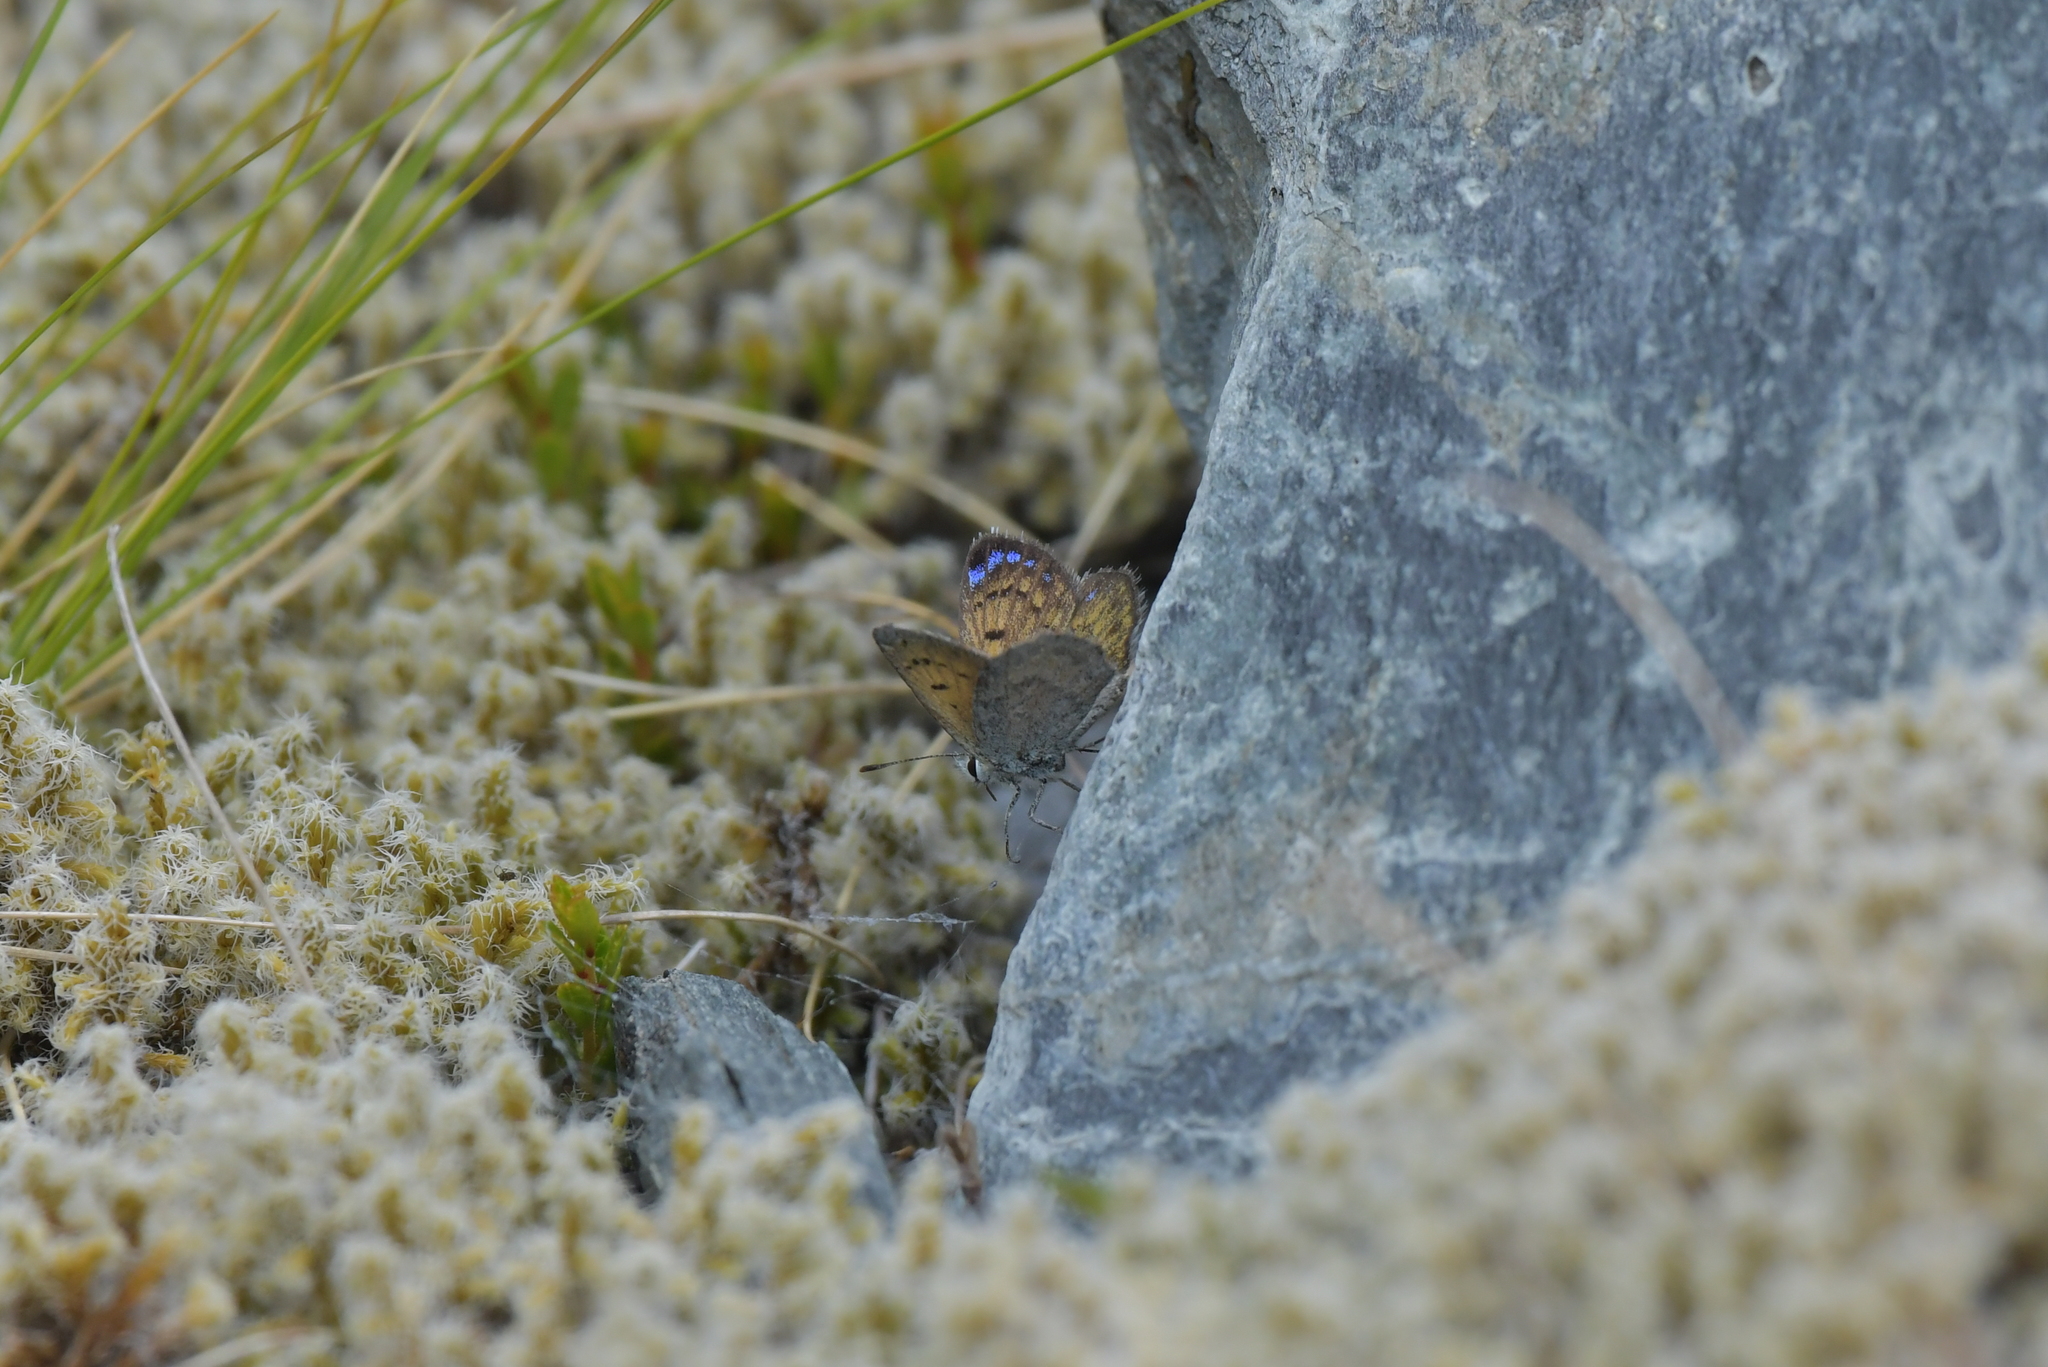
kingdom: Animalia
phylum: Arthropoda
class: Insecta
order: Lepidoptera
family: Lycaenidae
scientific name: Lycaenidae
